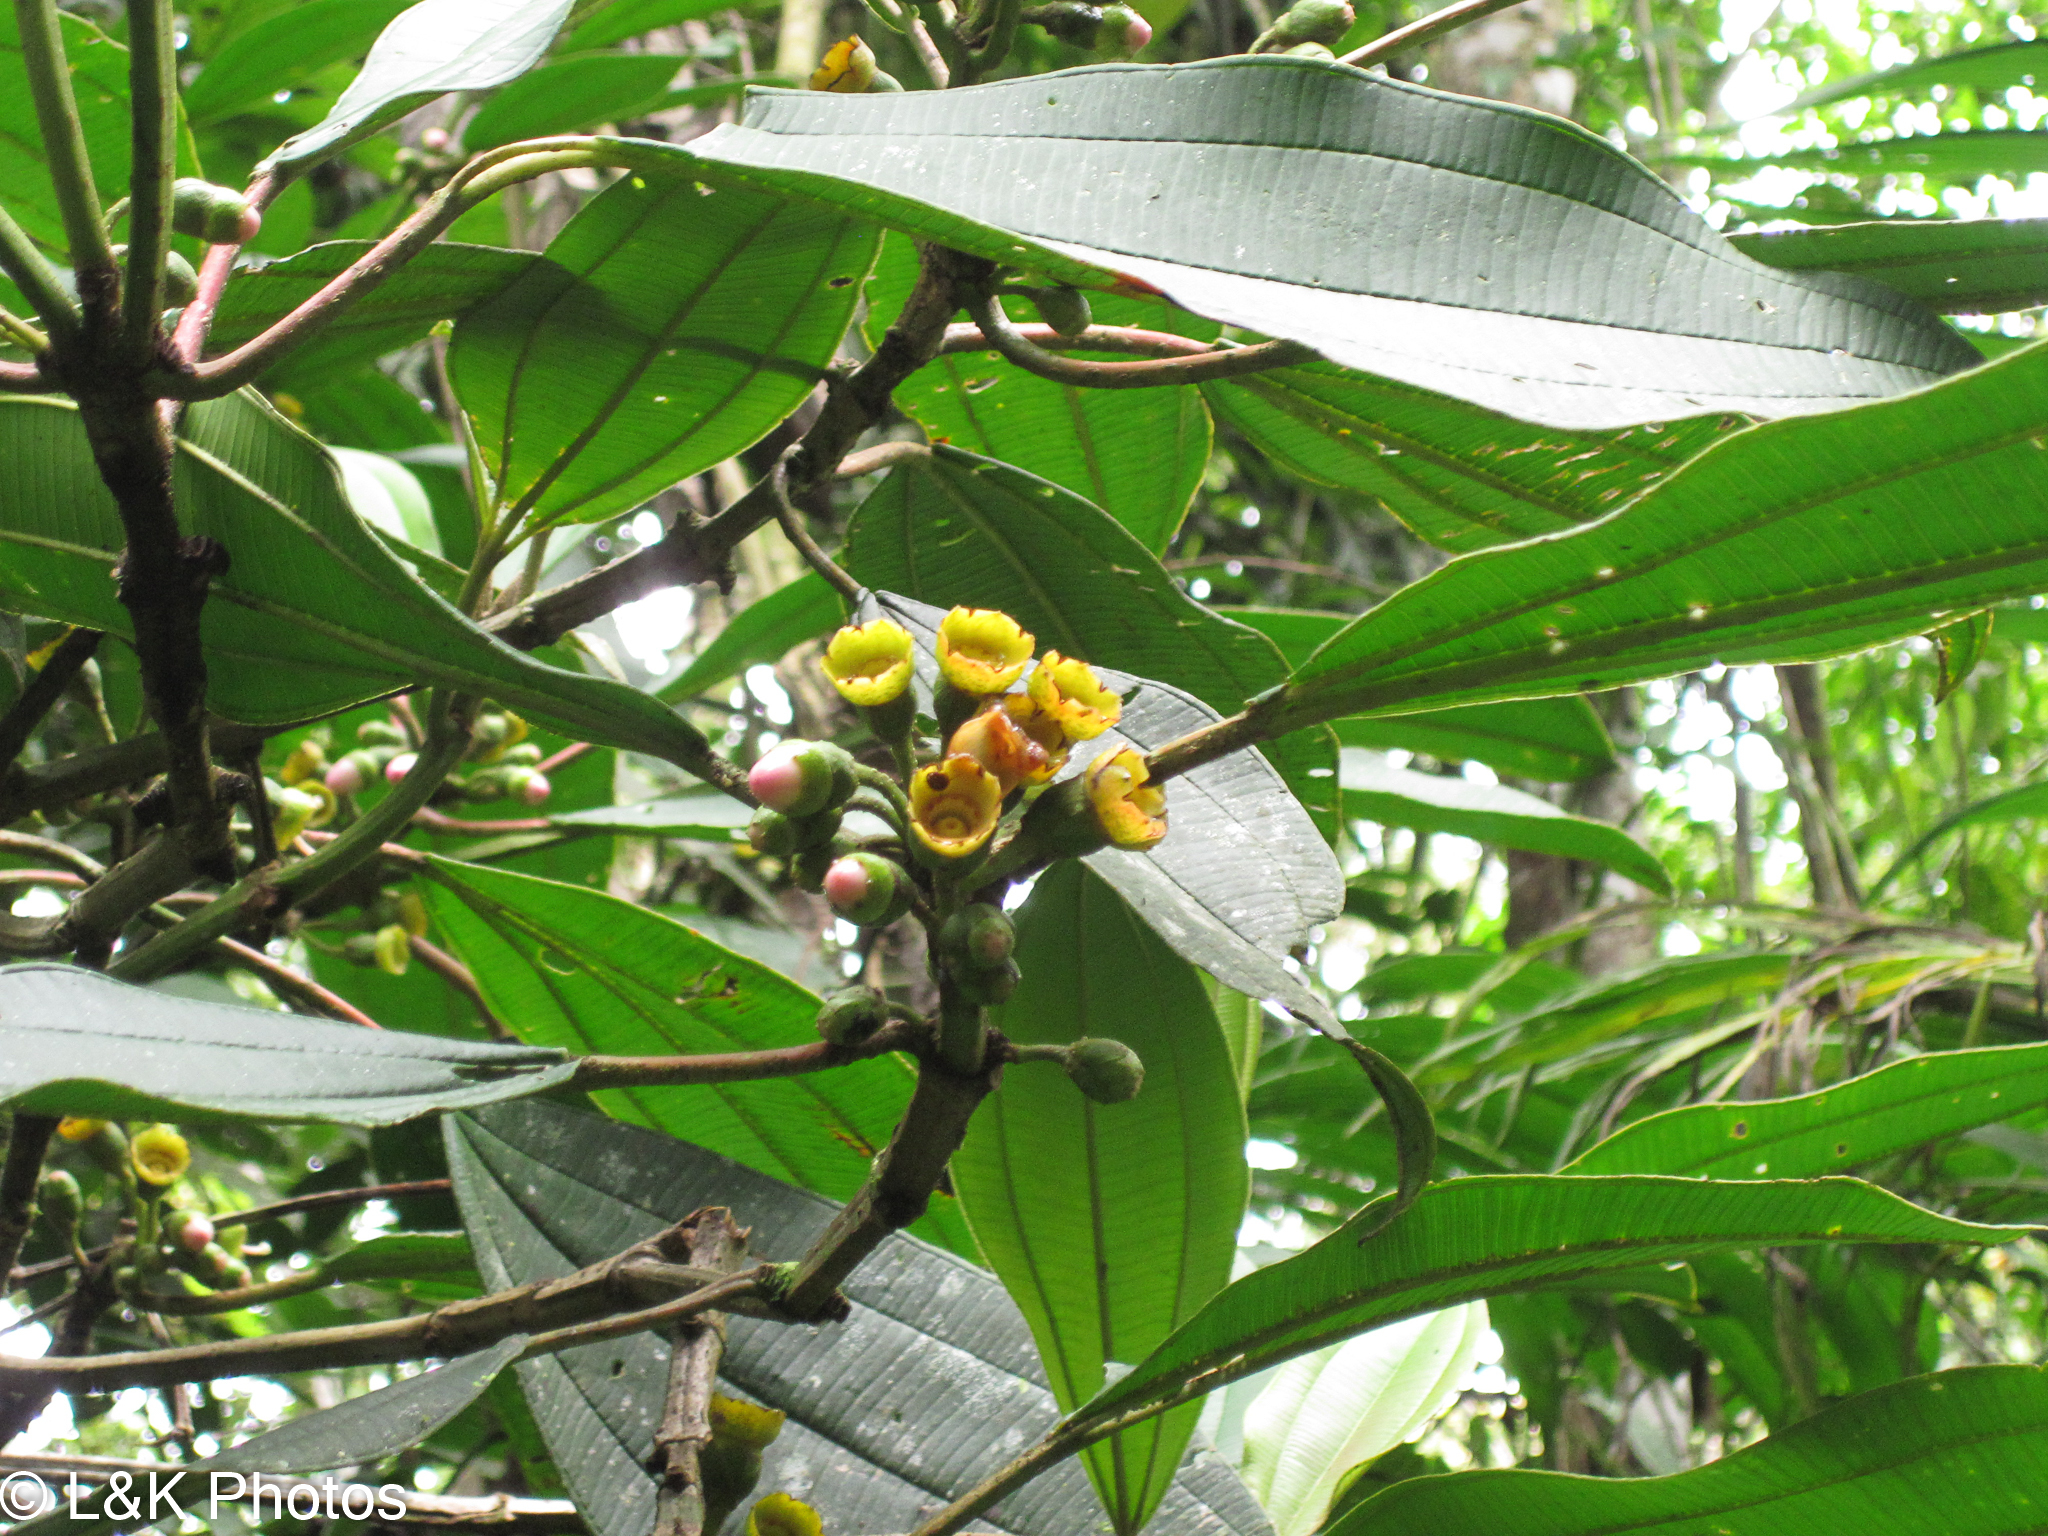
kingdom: Plantae
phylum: Tracheophyta
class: Magnoliopsida
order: Myrtales
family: Melastomataceae
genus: Blakea
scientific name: Blakea maurofernandeziana
